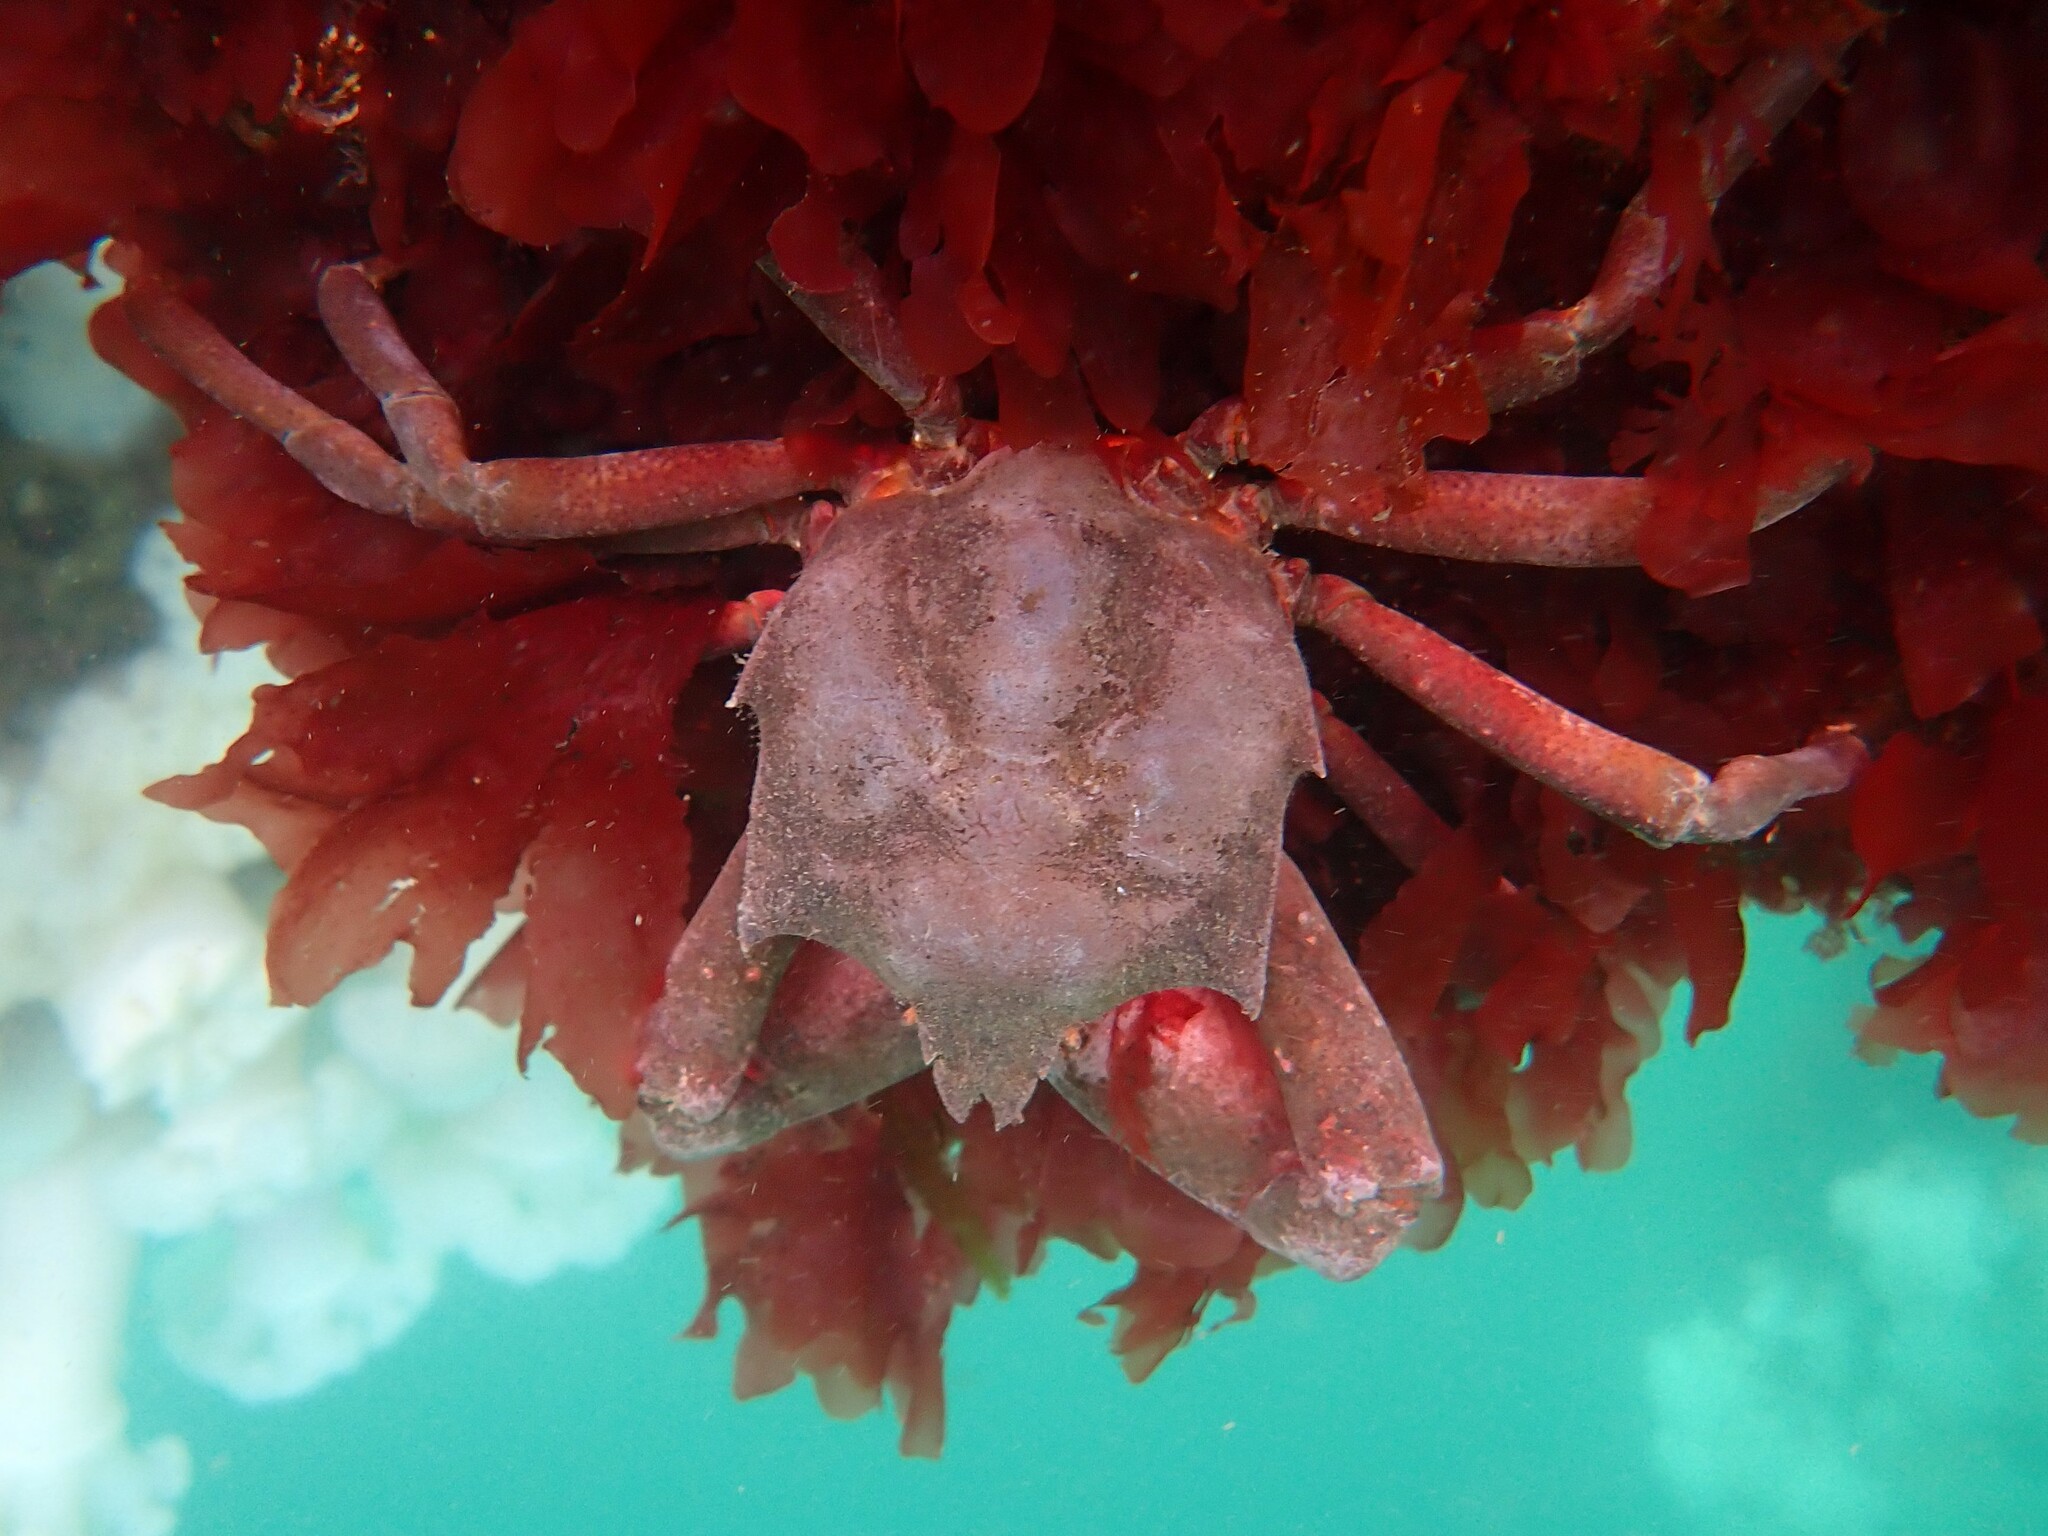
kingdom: Animalia
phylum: Arthropoda
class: Malacostraca
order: Decapoda
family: Epialtidae
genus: Pugettia
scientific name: Pugettia producta
